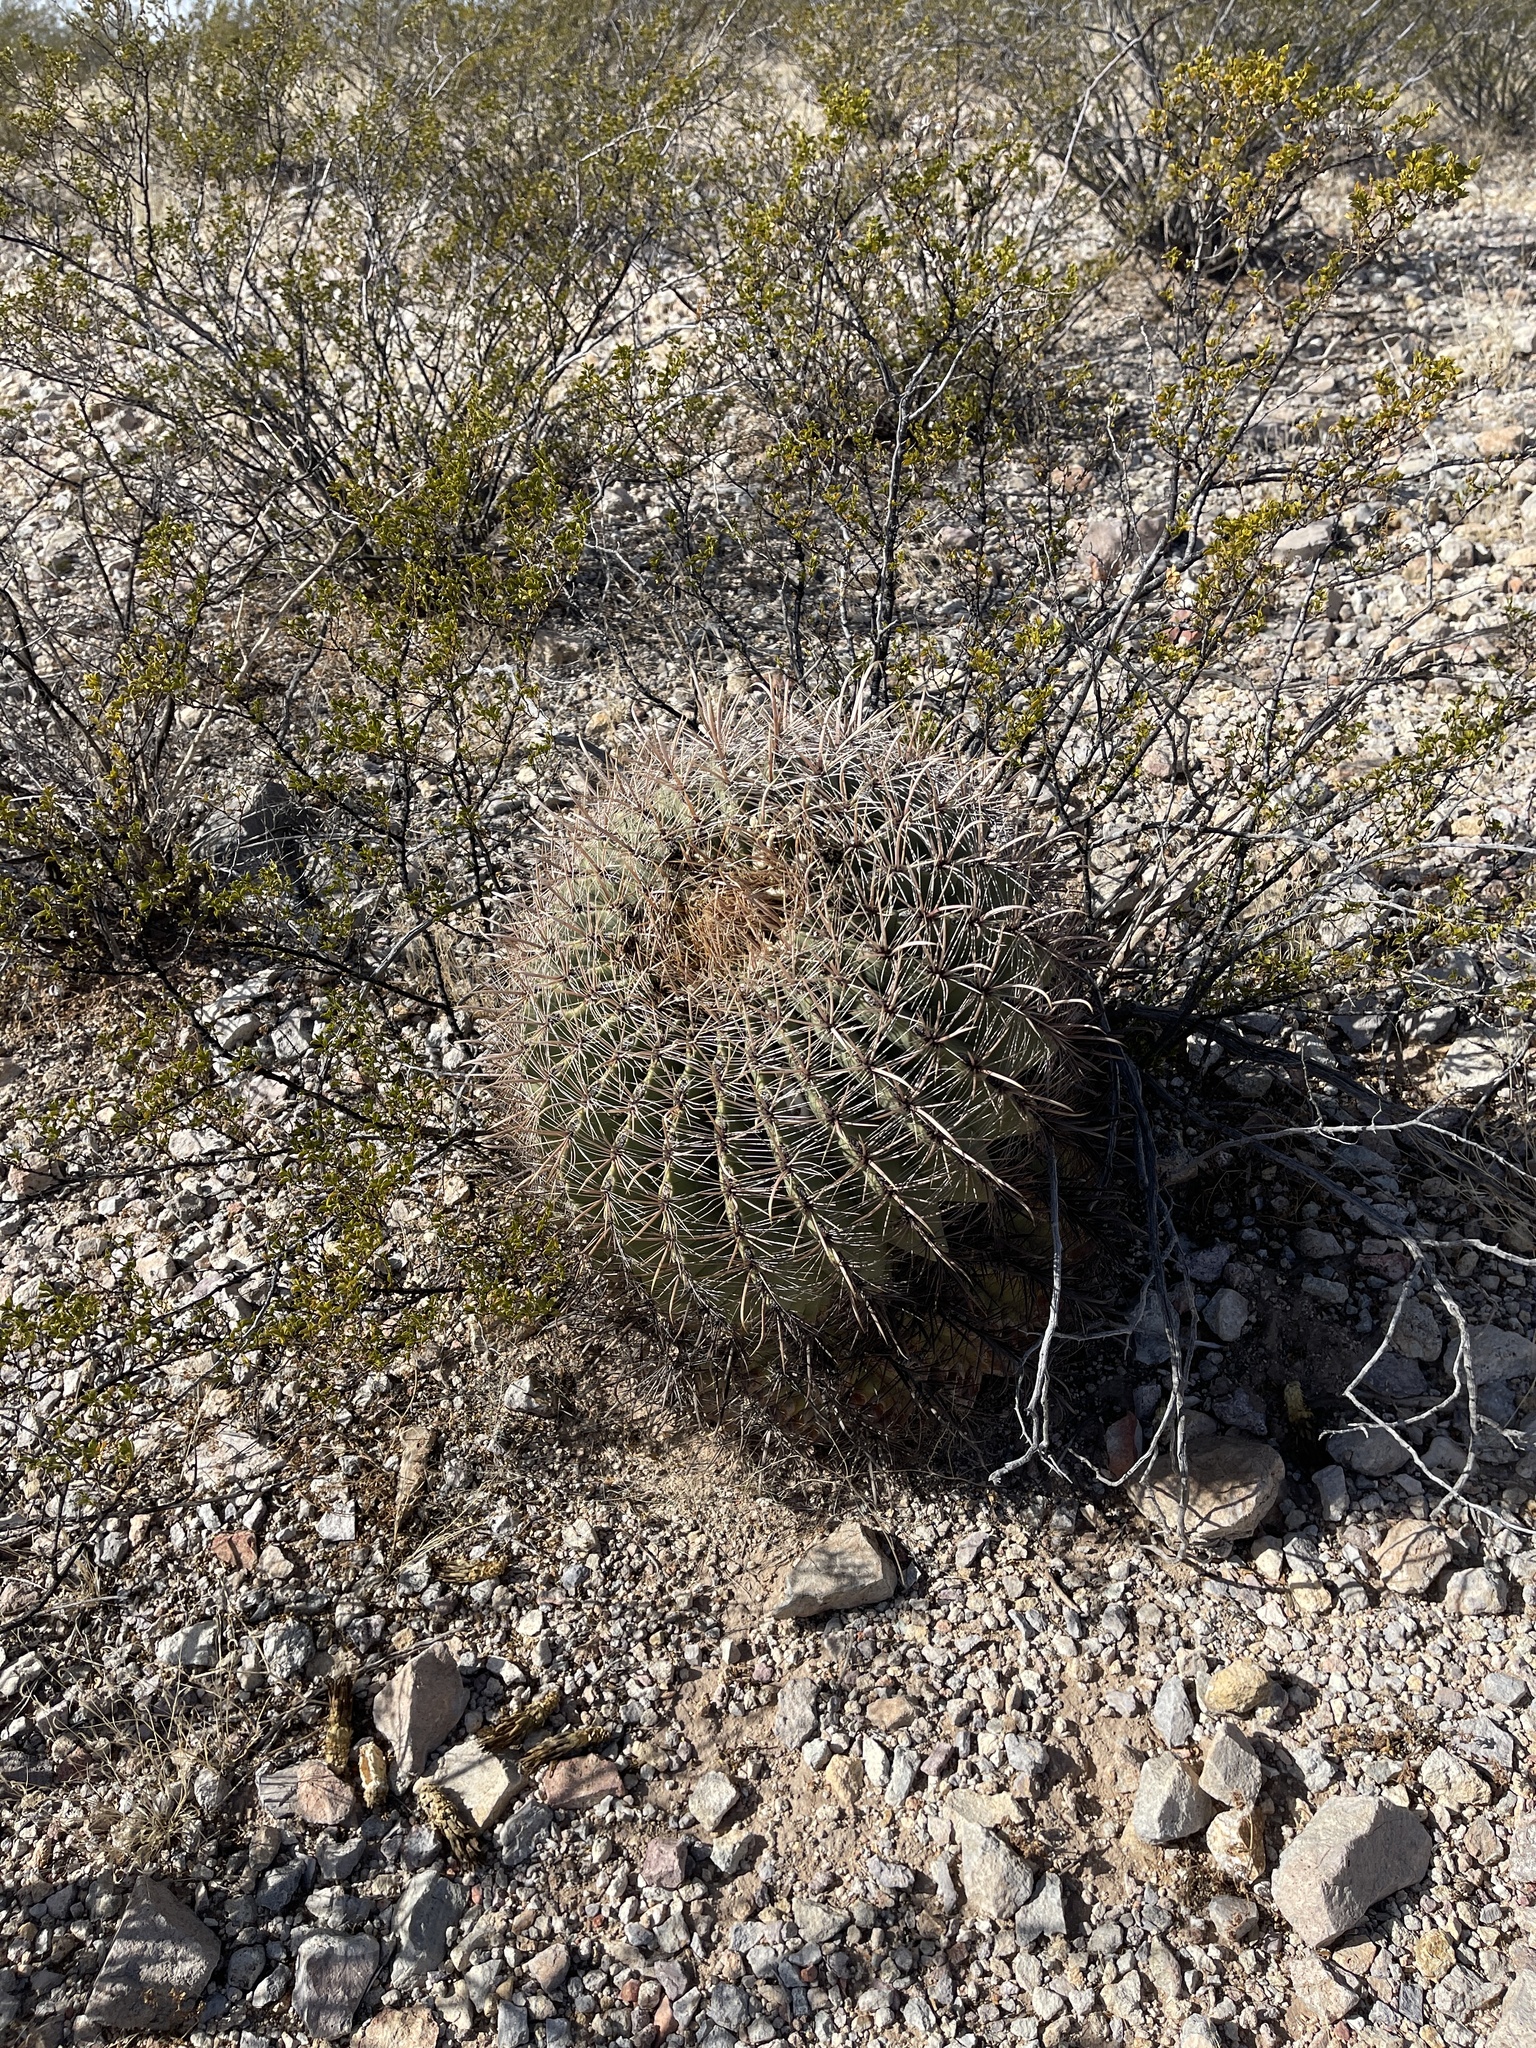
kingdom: Plantae
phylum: Tracheophyta
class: Magnoliopsida
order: Caryophyllales
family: Cactaceae
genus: Ferocactus
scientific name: Ferocactus wislizeni
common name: Candy barrel cactus
